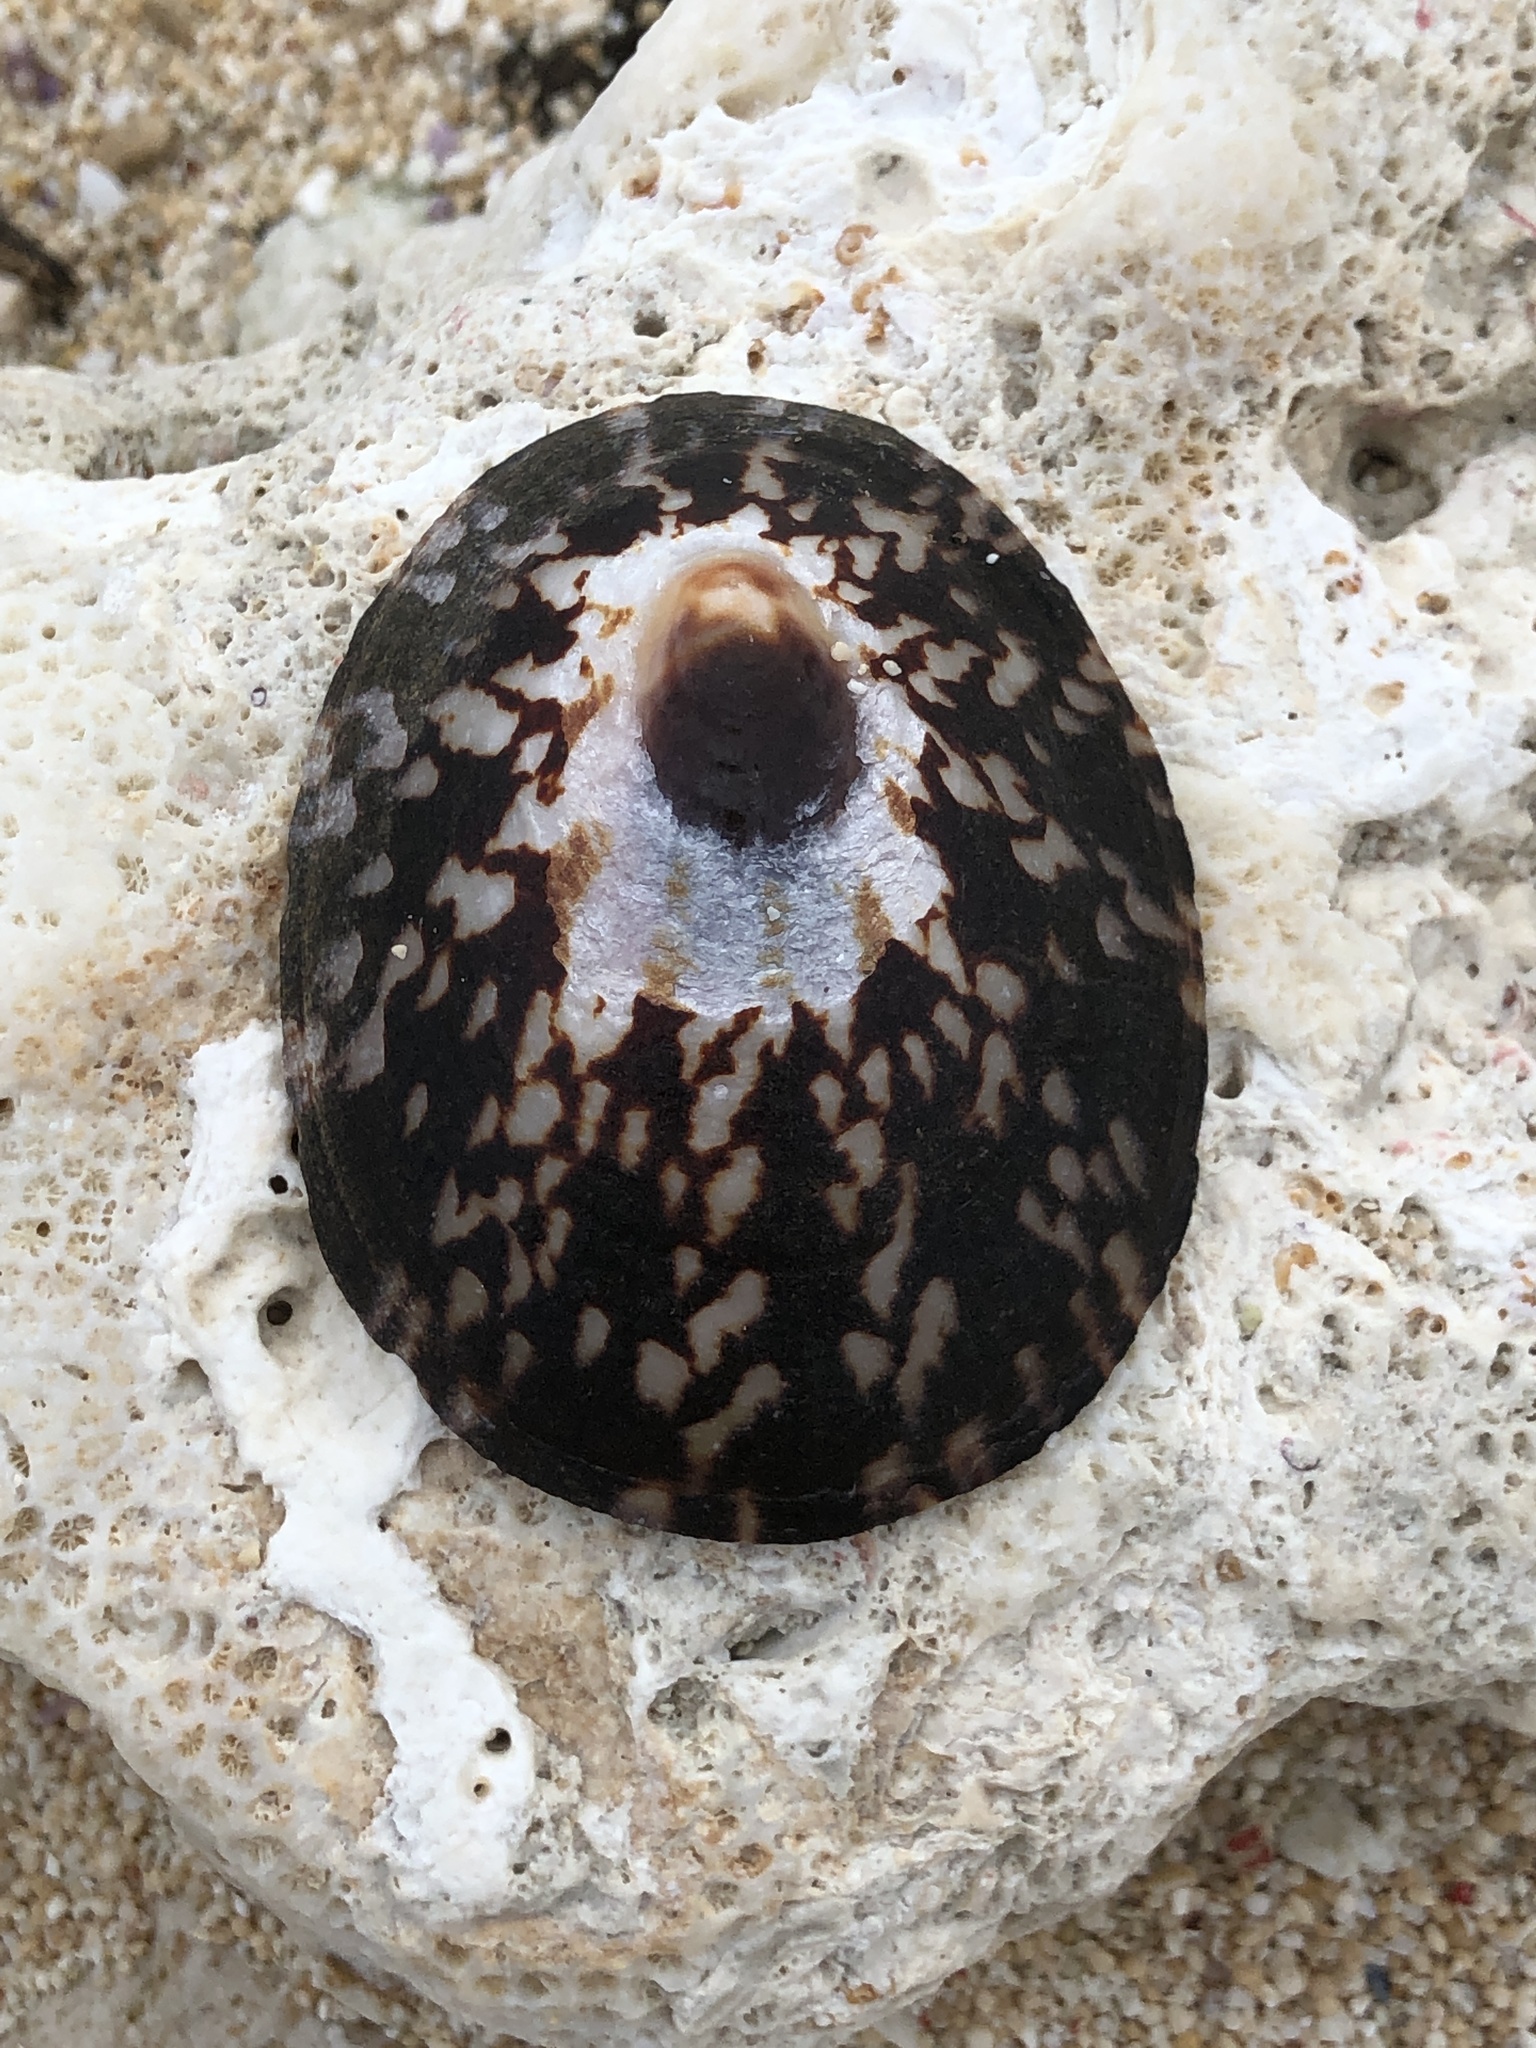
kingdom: Animalia
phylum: Mollusca
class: Gastropoda
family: Nacellidae
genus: Cellana
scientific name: Cellana testudinaria
